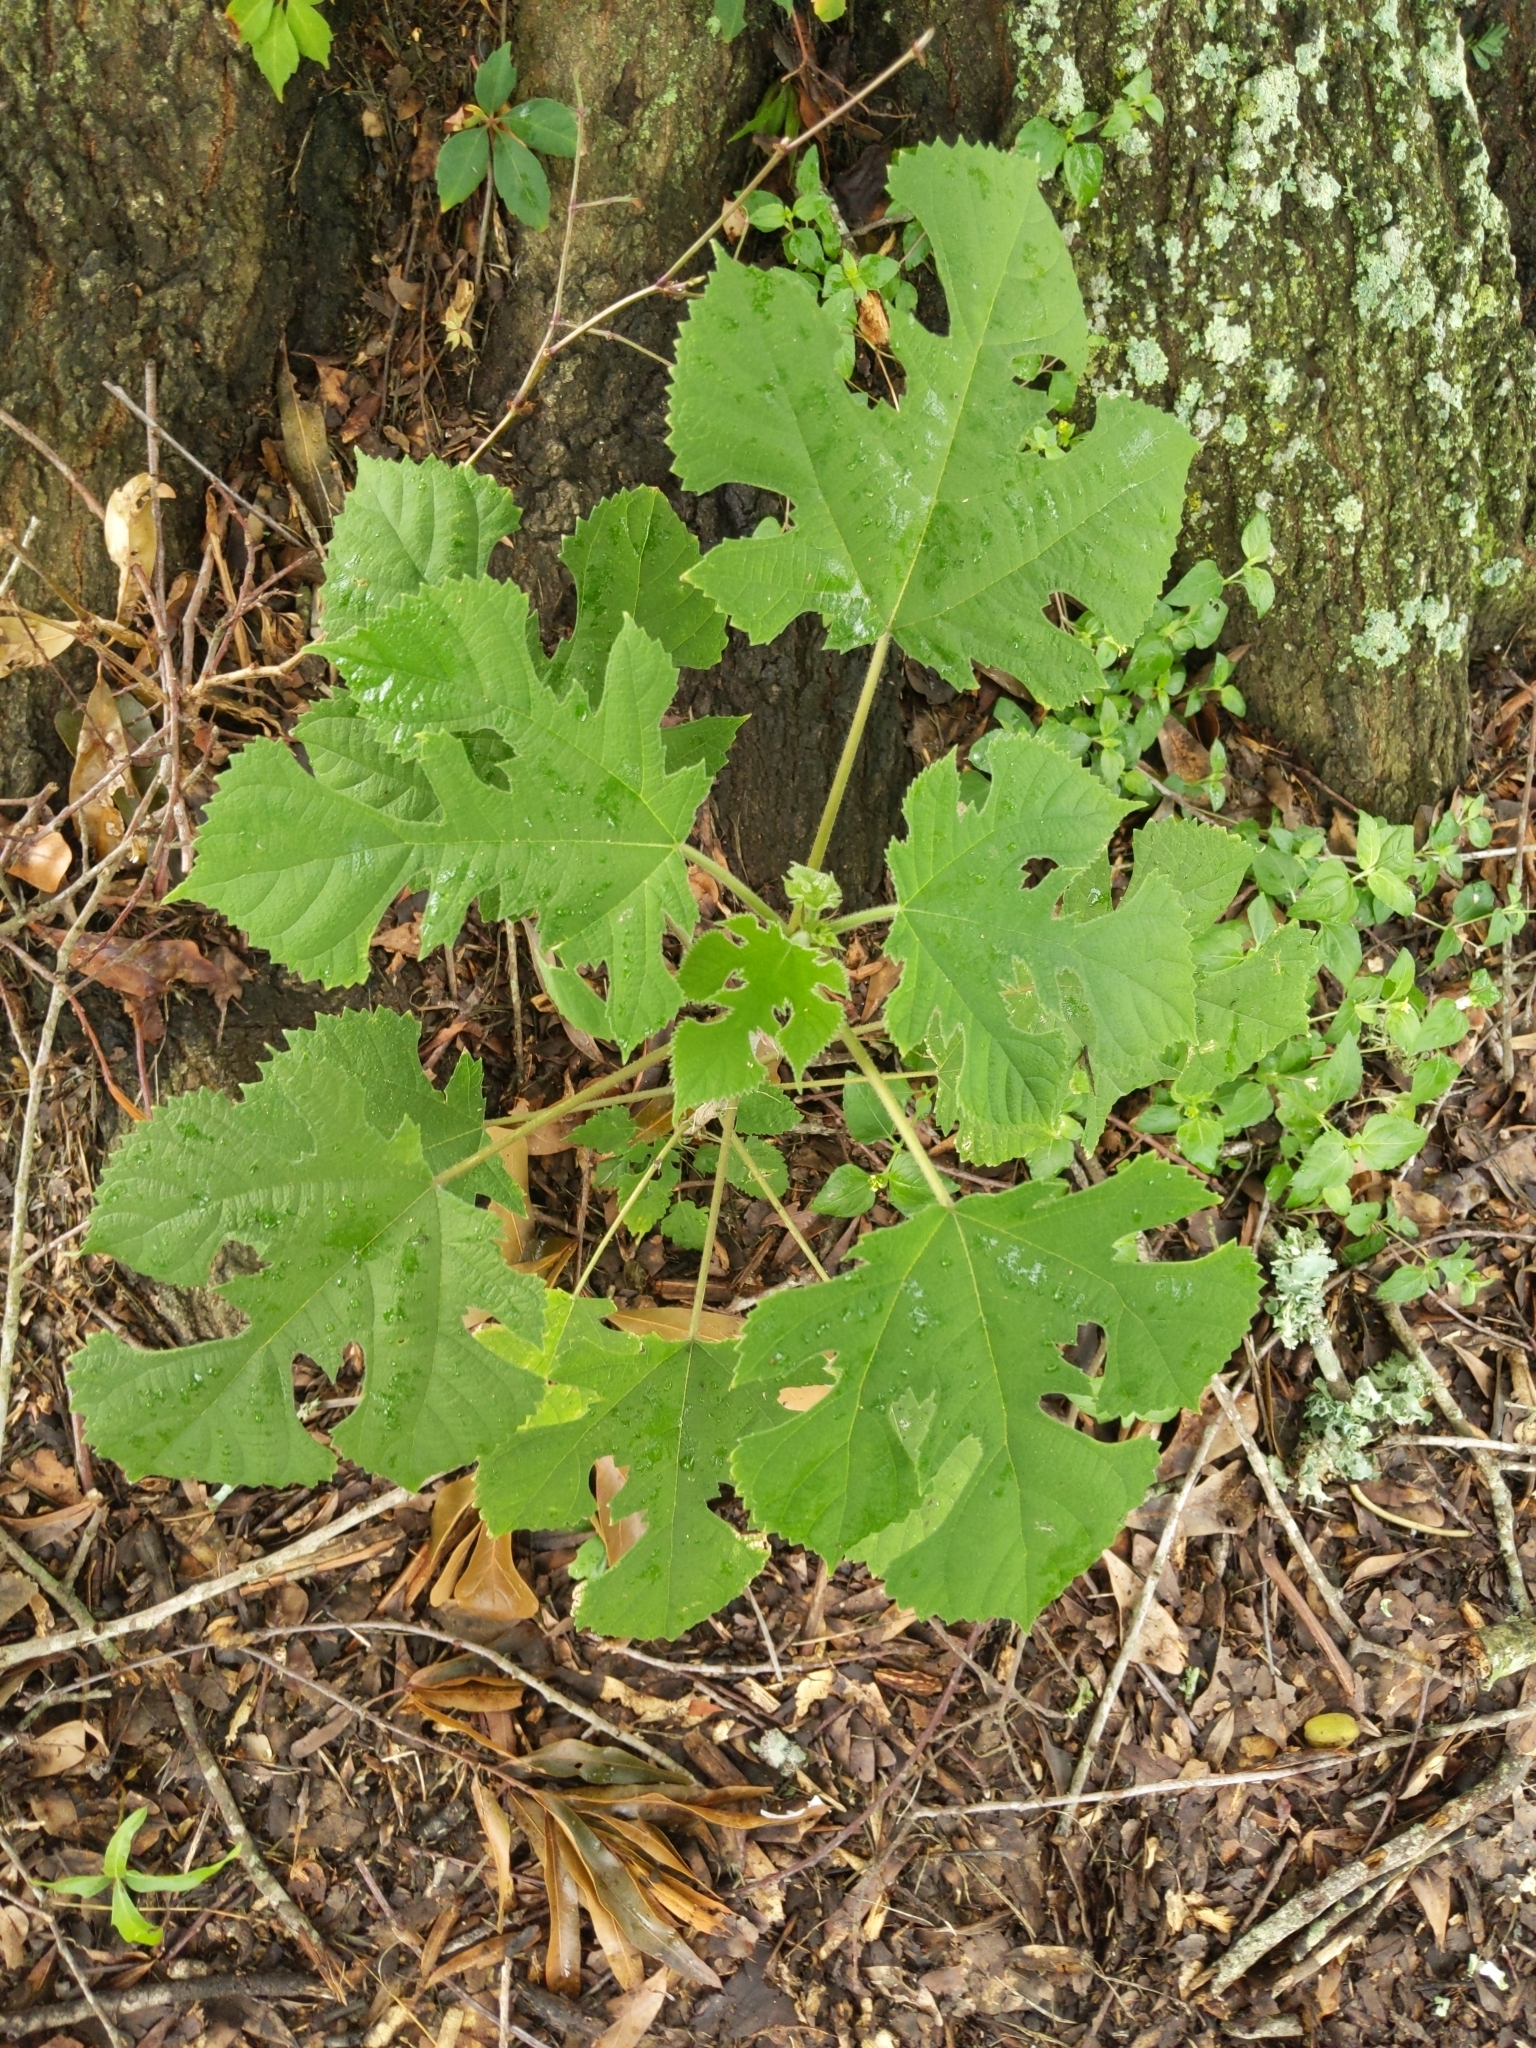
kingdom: Plantae
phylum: Tracheophyta
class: Magnoliopsida
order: Rosales
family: Moraceae
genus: Broussonetia
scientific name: Broussonetia papyrifera
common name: Paper mulberry
